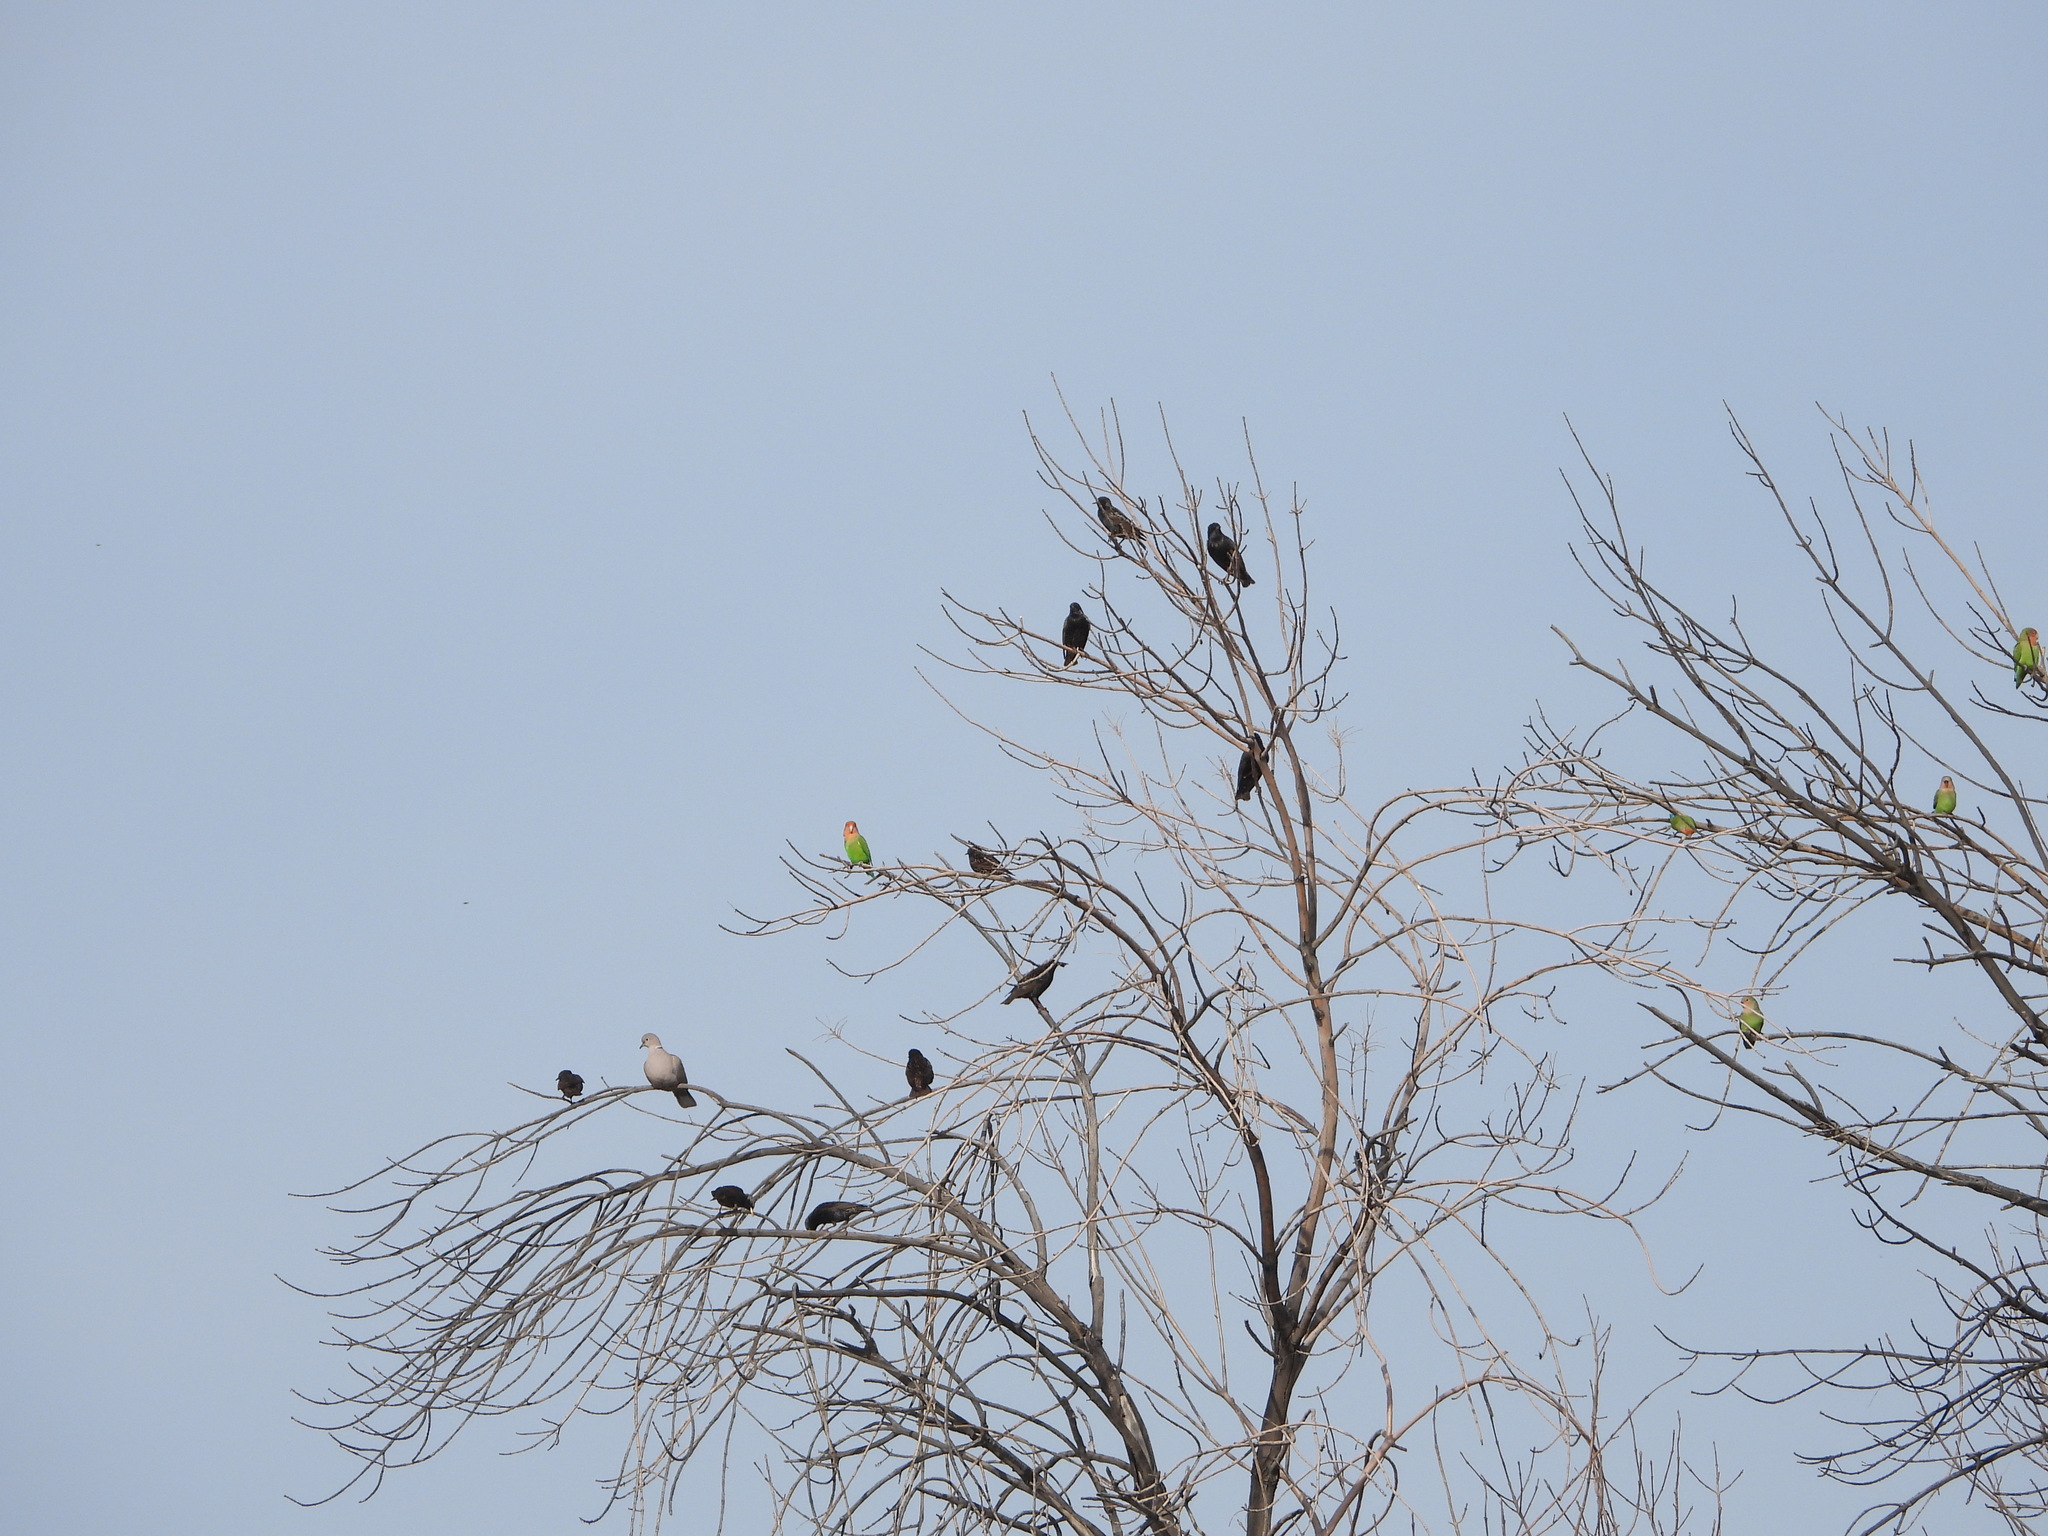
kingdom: Animalia
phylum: Chordata
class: Aves
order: Passeriformes
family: Sturnidae
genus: Sturnus
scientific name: Sturnus vulgaris
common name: Common starling
